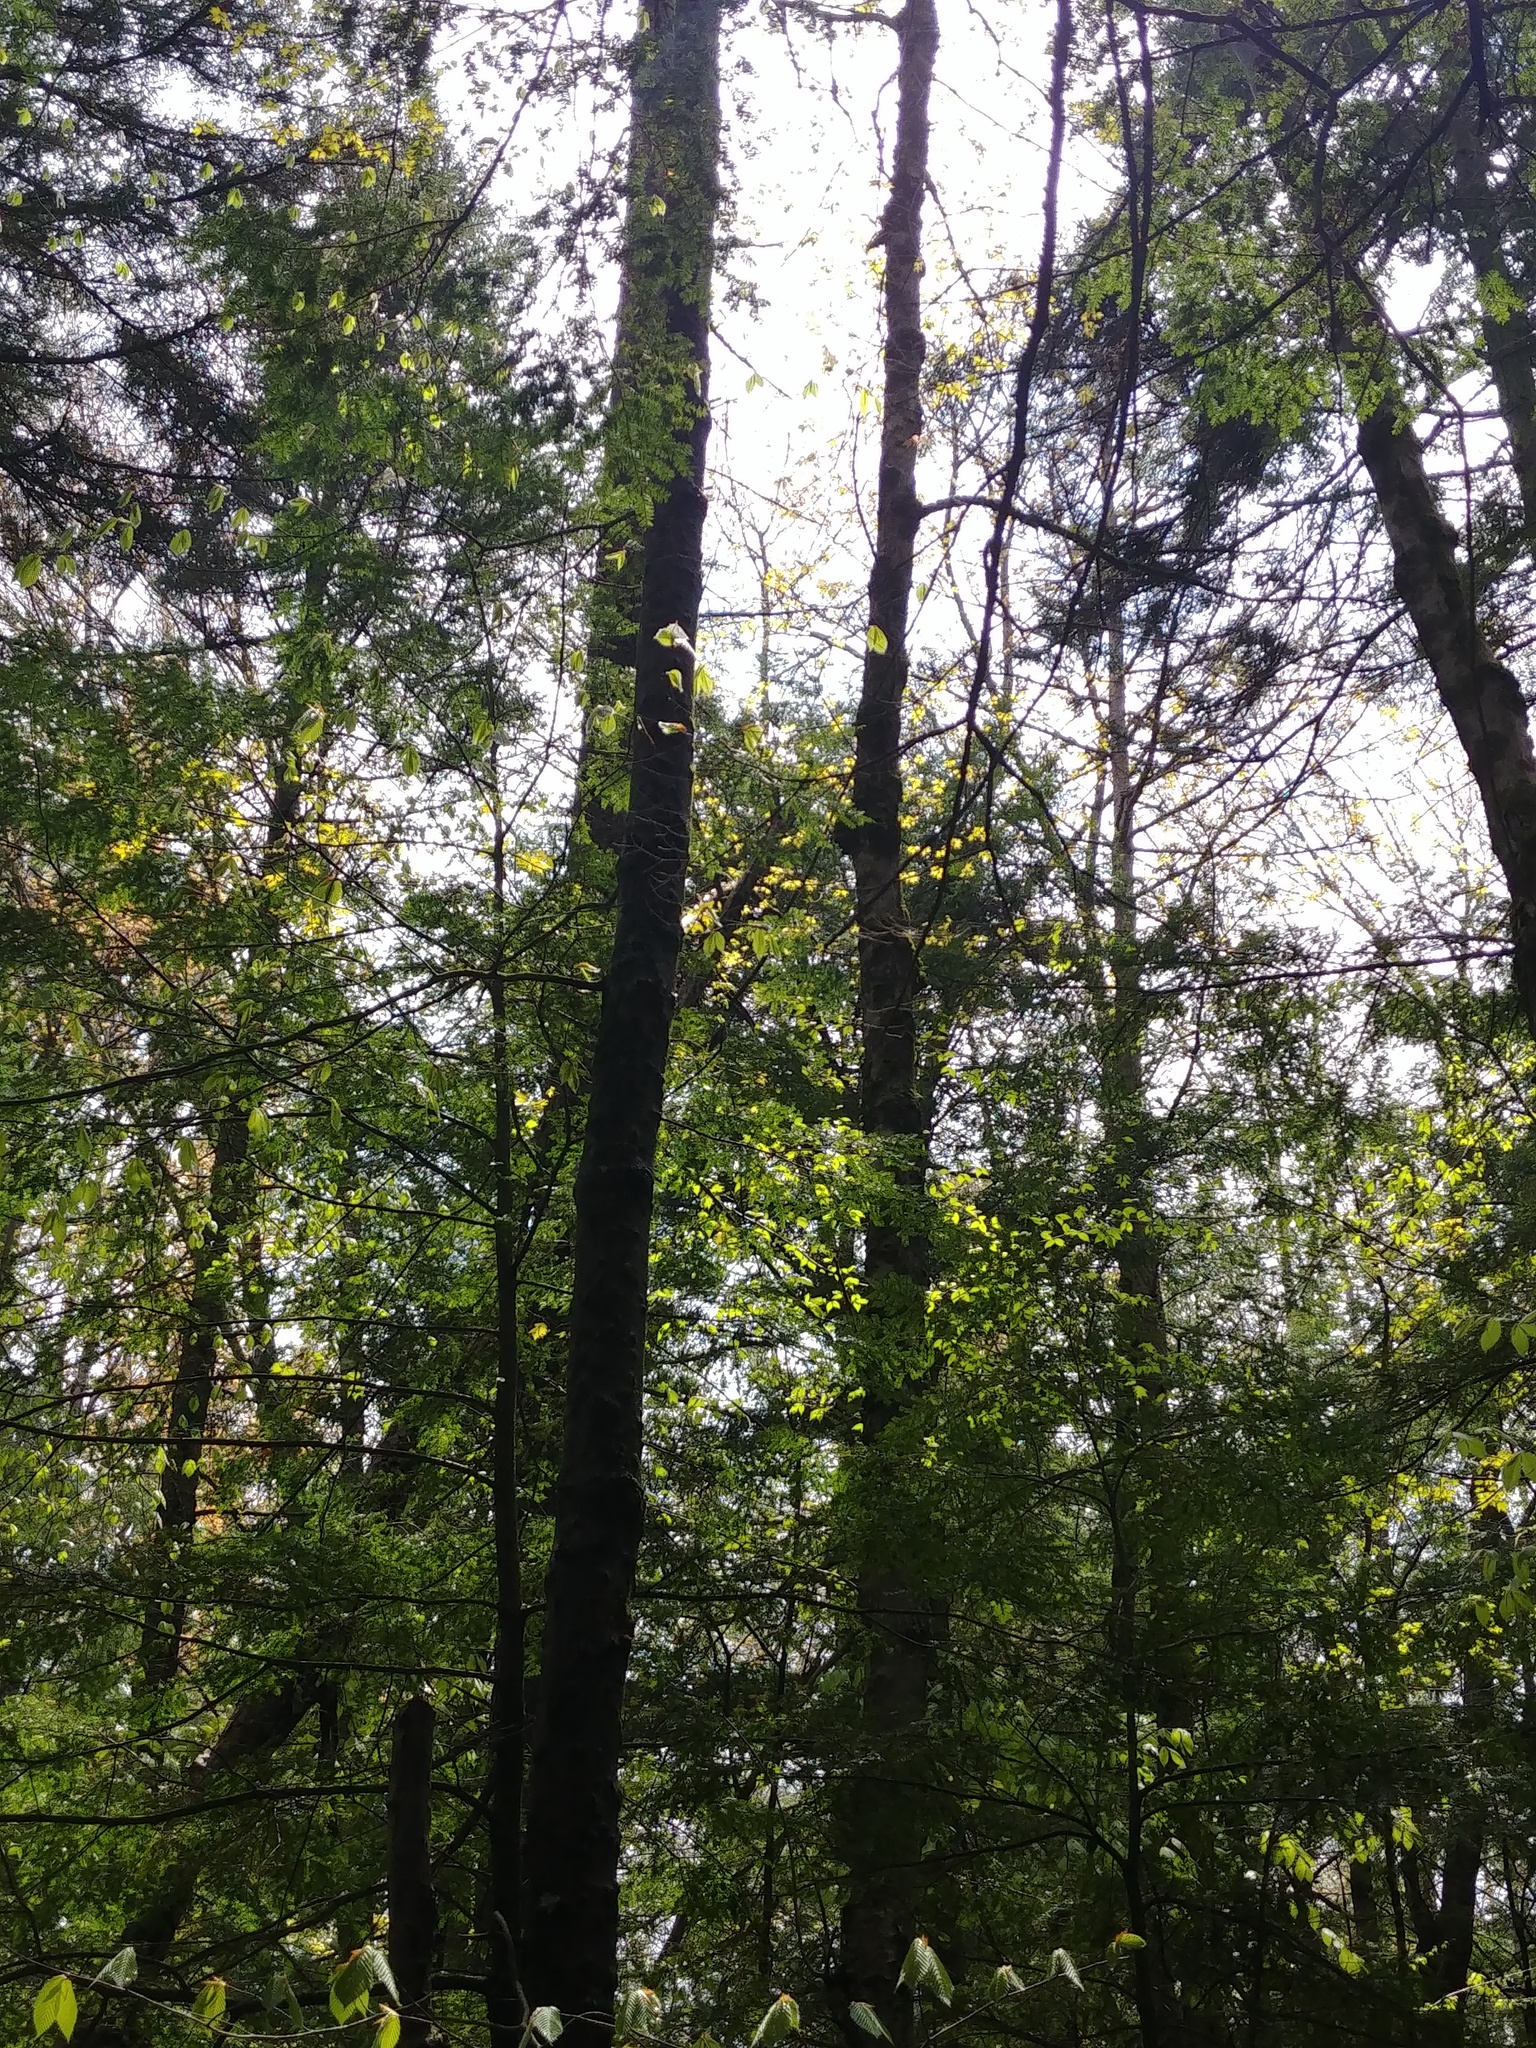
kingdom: Animalia
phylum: Chordata
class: Aves
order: Apodiformes
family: Trochilidae
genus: Archilochus
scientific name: Archilochus colubris
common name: Ruby-throated hummingbird
